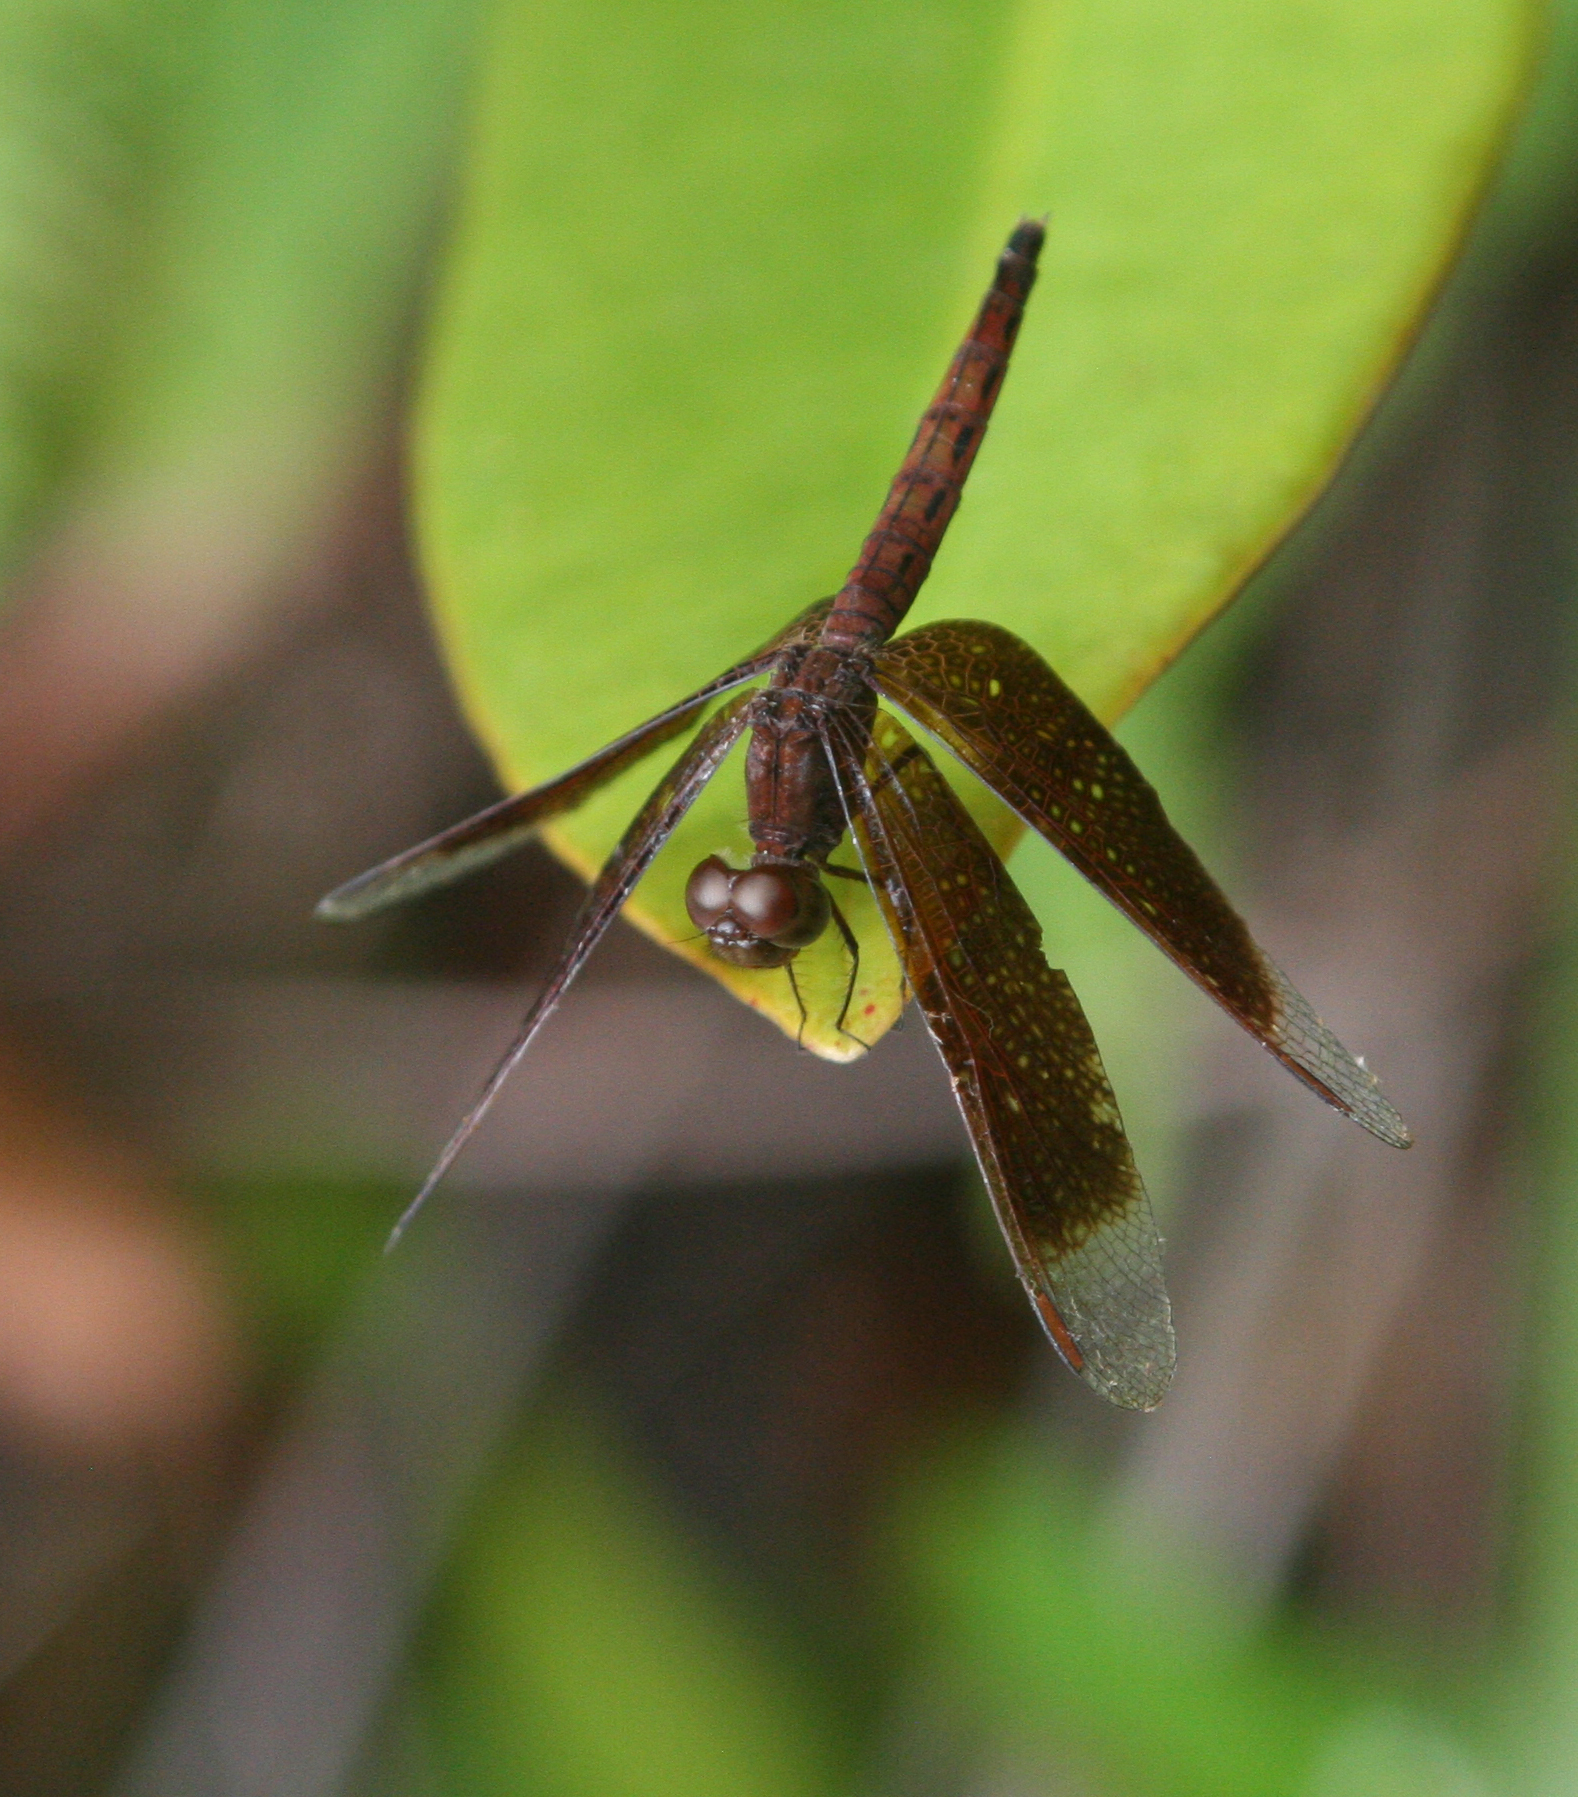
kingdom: Animalia
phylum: Arthropoda
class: Insecta
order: Odonata
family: Libellulidae
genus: Neurothemis
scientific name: Neurothemis fluctuans
